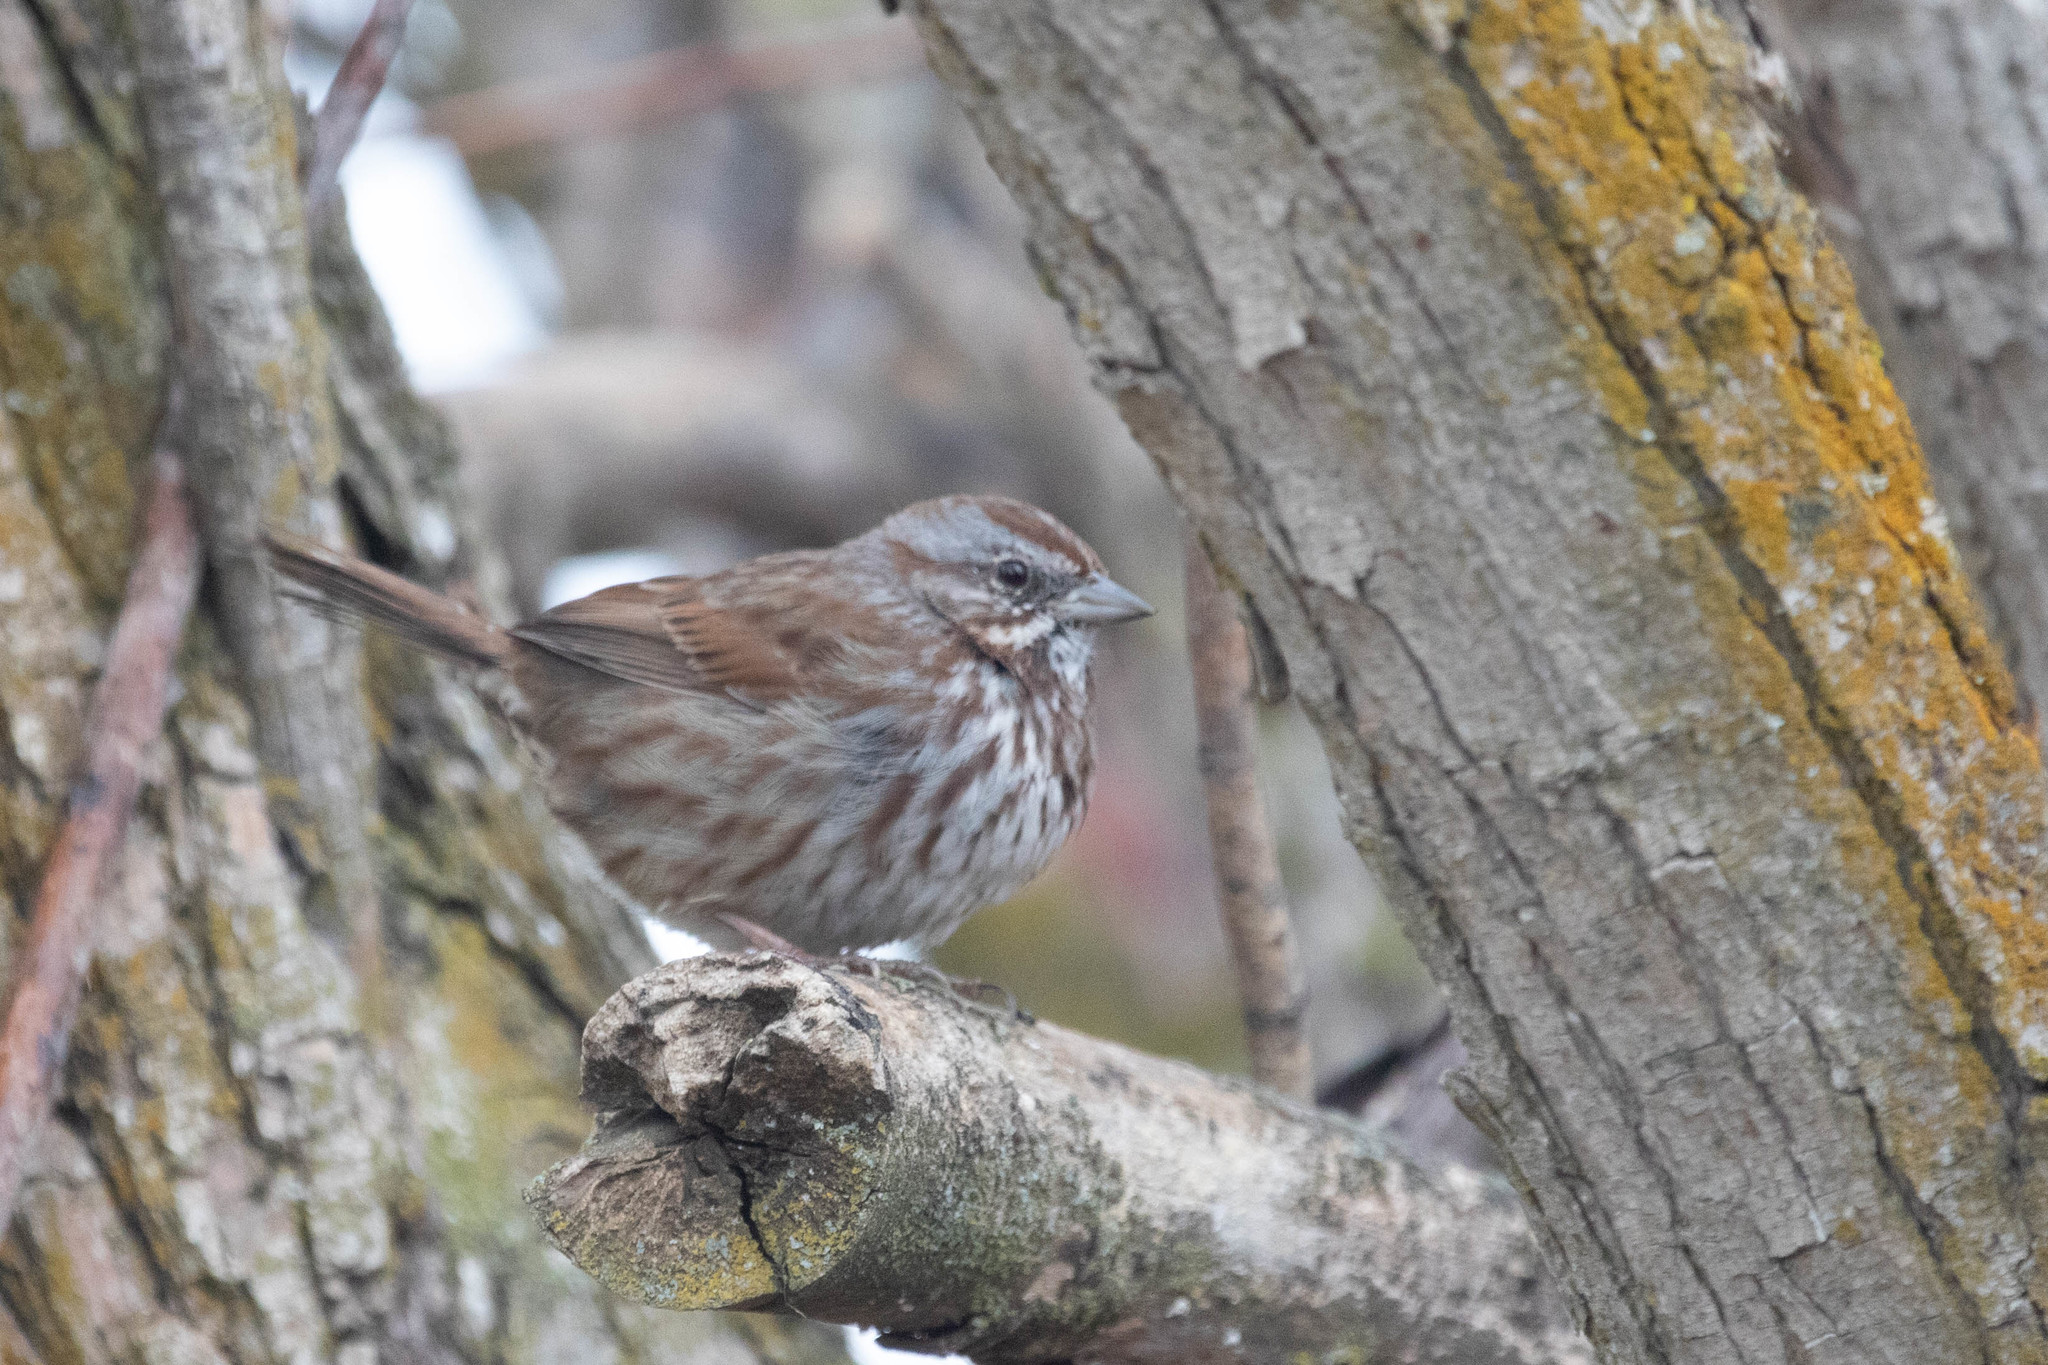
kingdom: Animalia
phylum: Chordata
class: Aves
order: Passeriformes
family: Passerellidae
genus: Melospiza
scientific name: Melospiza melodia
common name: Song sparrow
